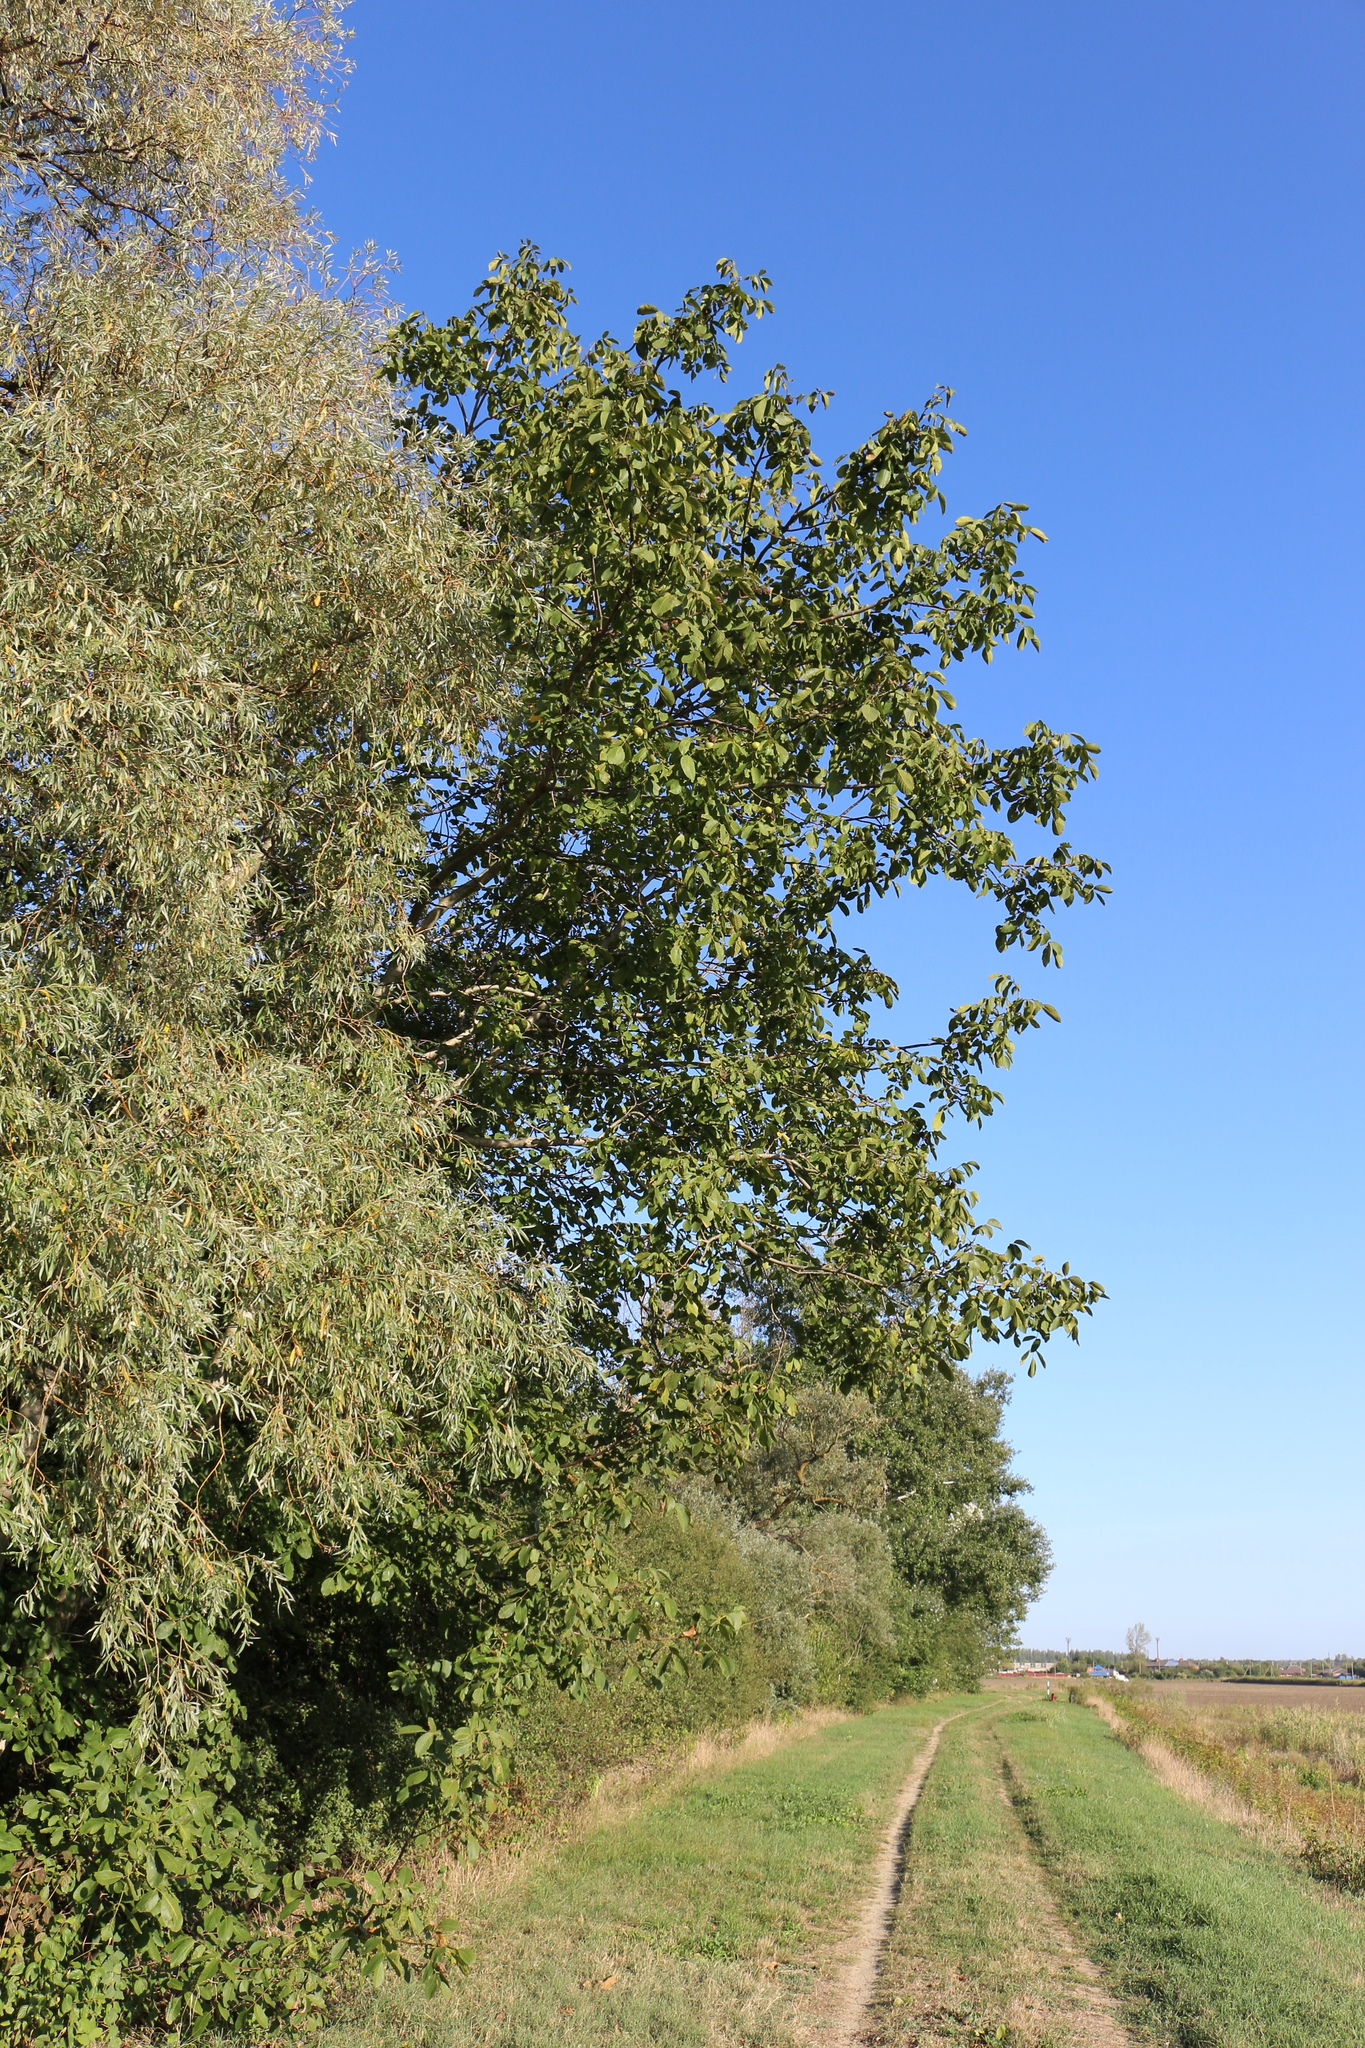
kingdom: Plantae
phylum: Tracheophyta
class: Magnoliopsida
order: Fagales
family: Juglandaceae
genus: Juglans
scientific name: Juglans regia
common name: Walnut
